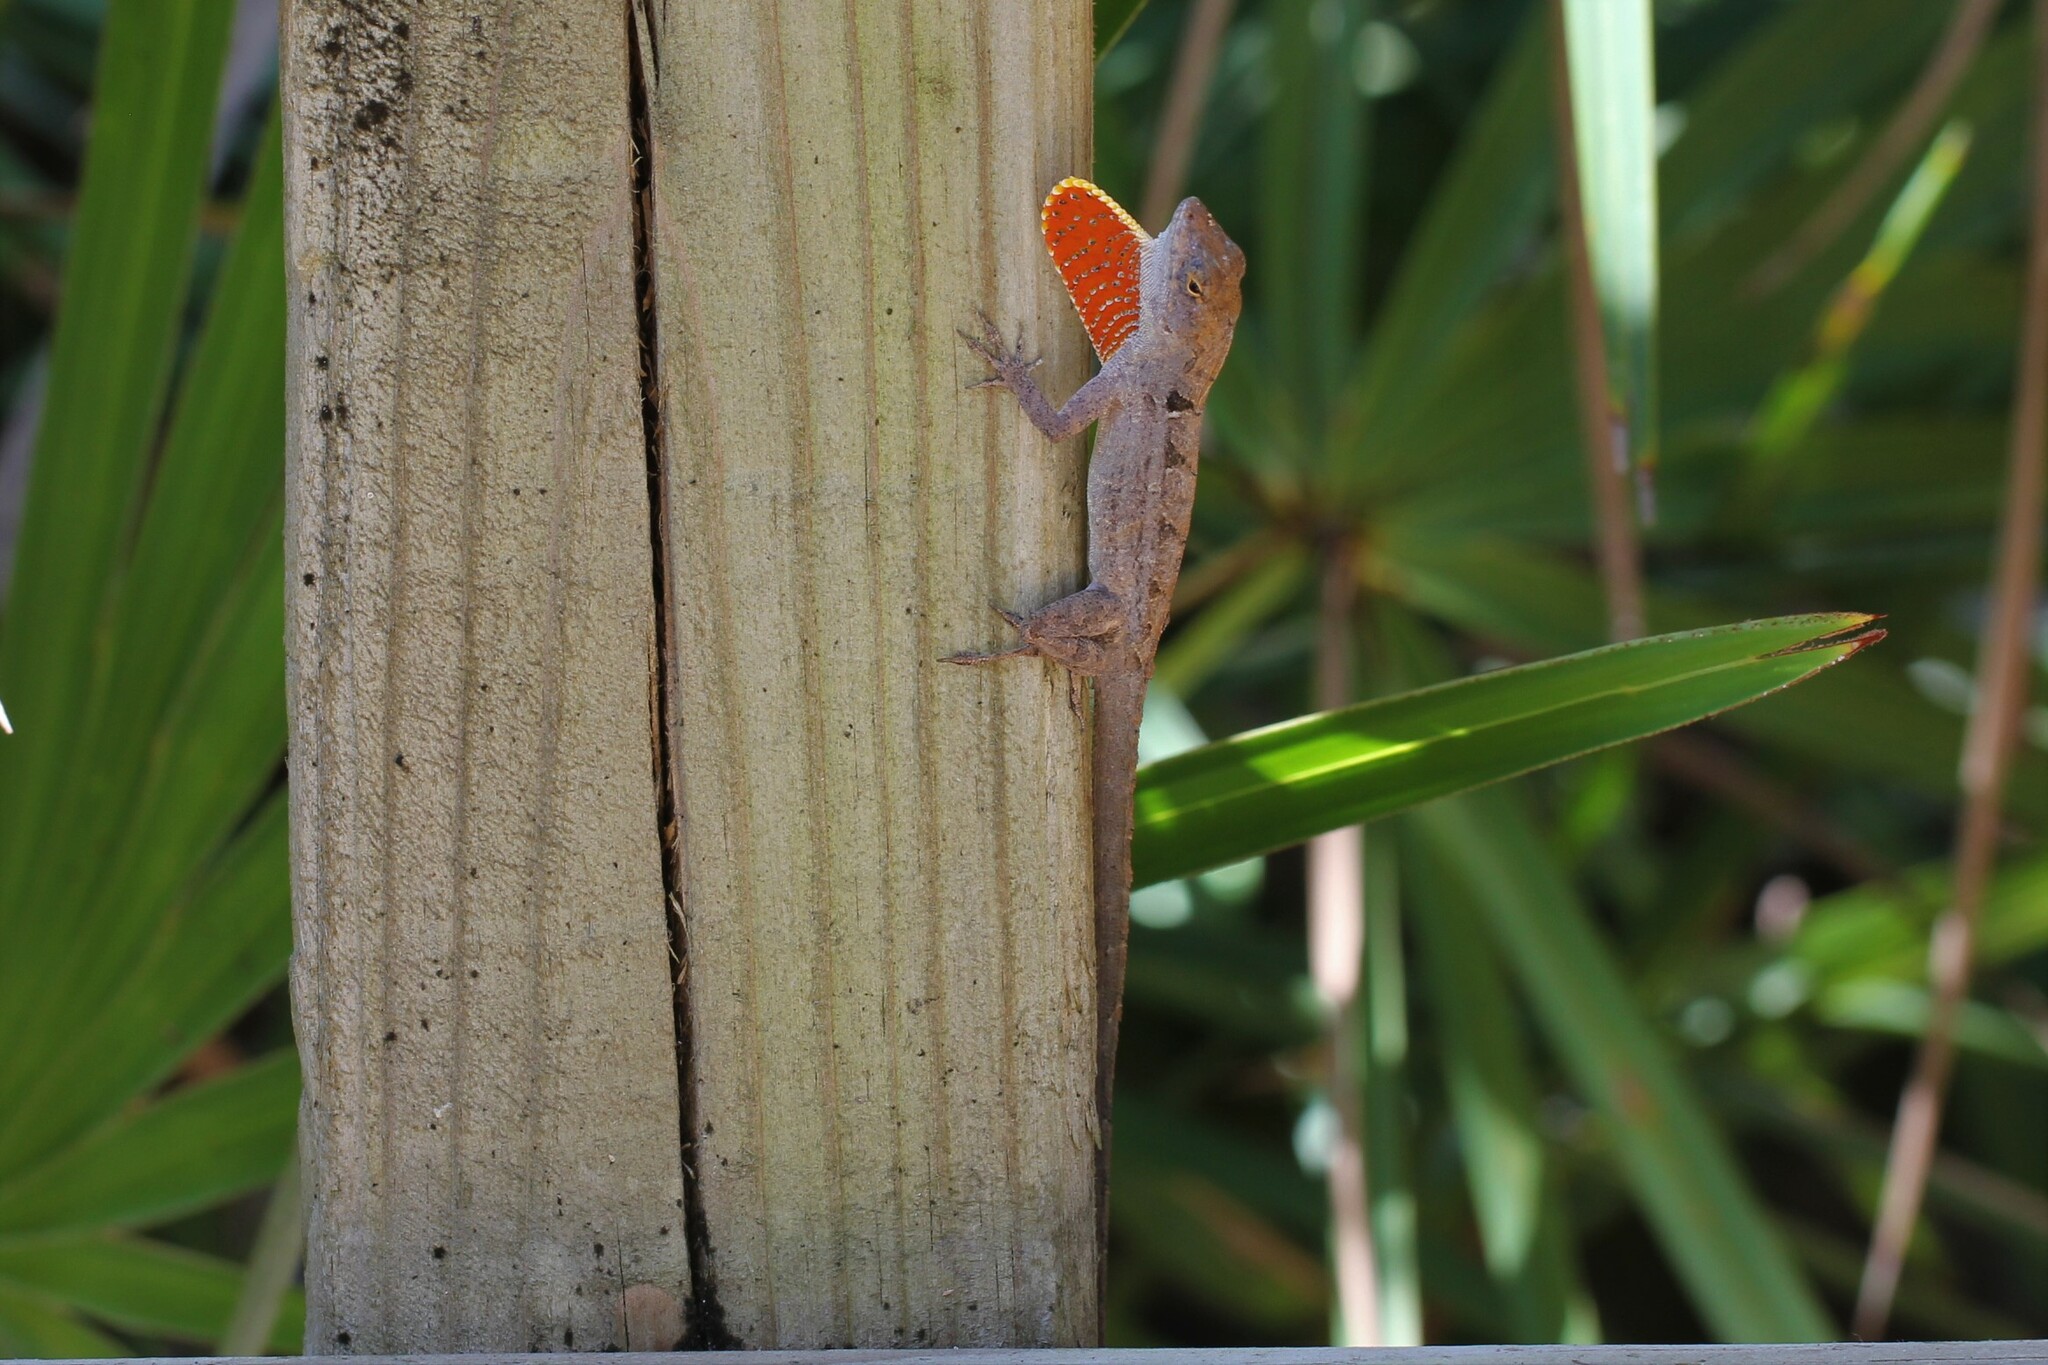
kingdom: Animalia
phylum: Chordata
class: Squamata
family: Dactyloidae
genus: Anolis
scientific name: Anolis sagrei
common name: Brown anole
